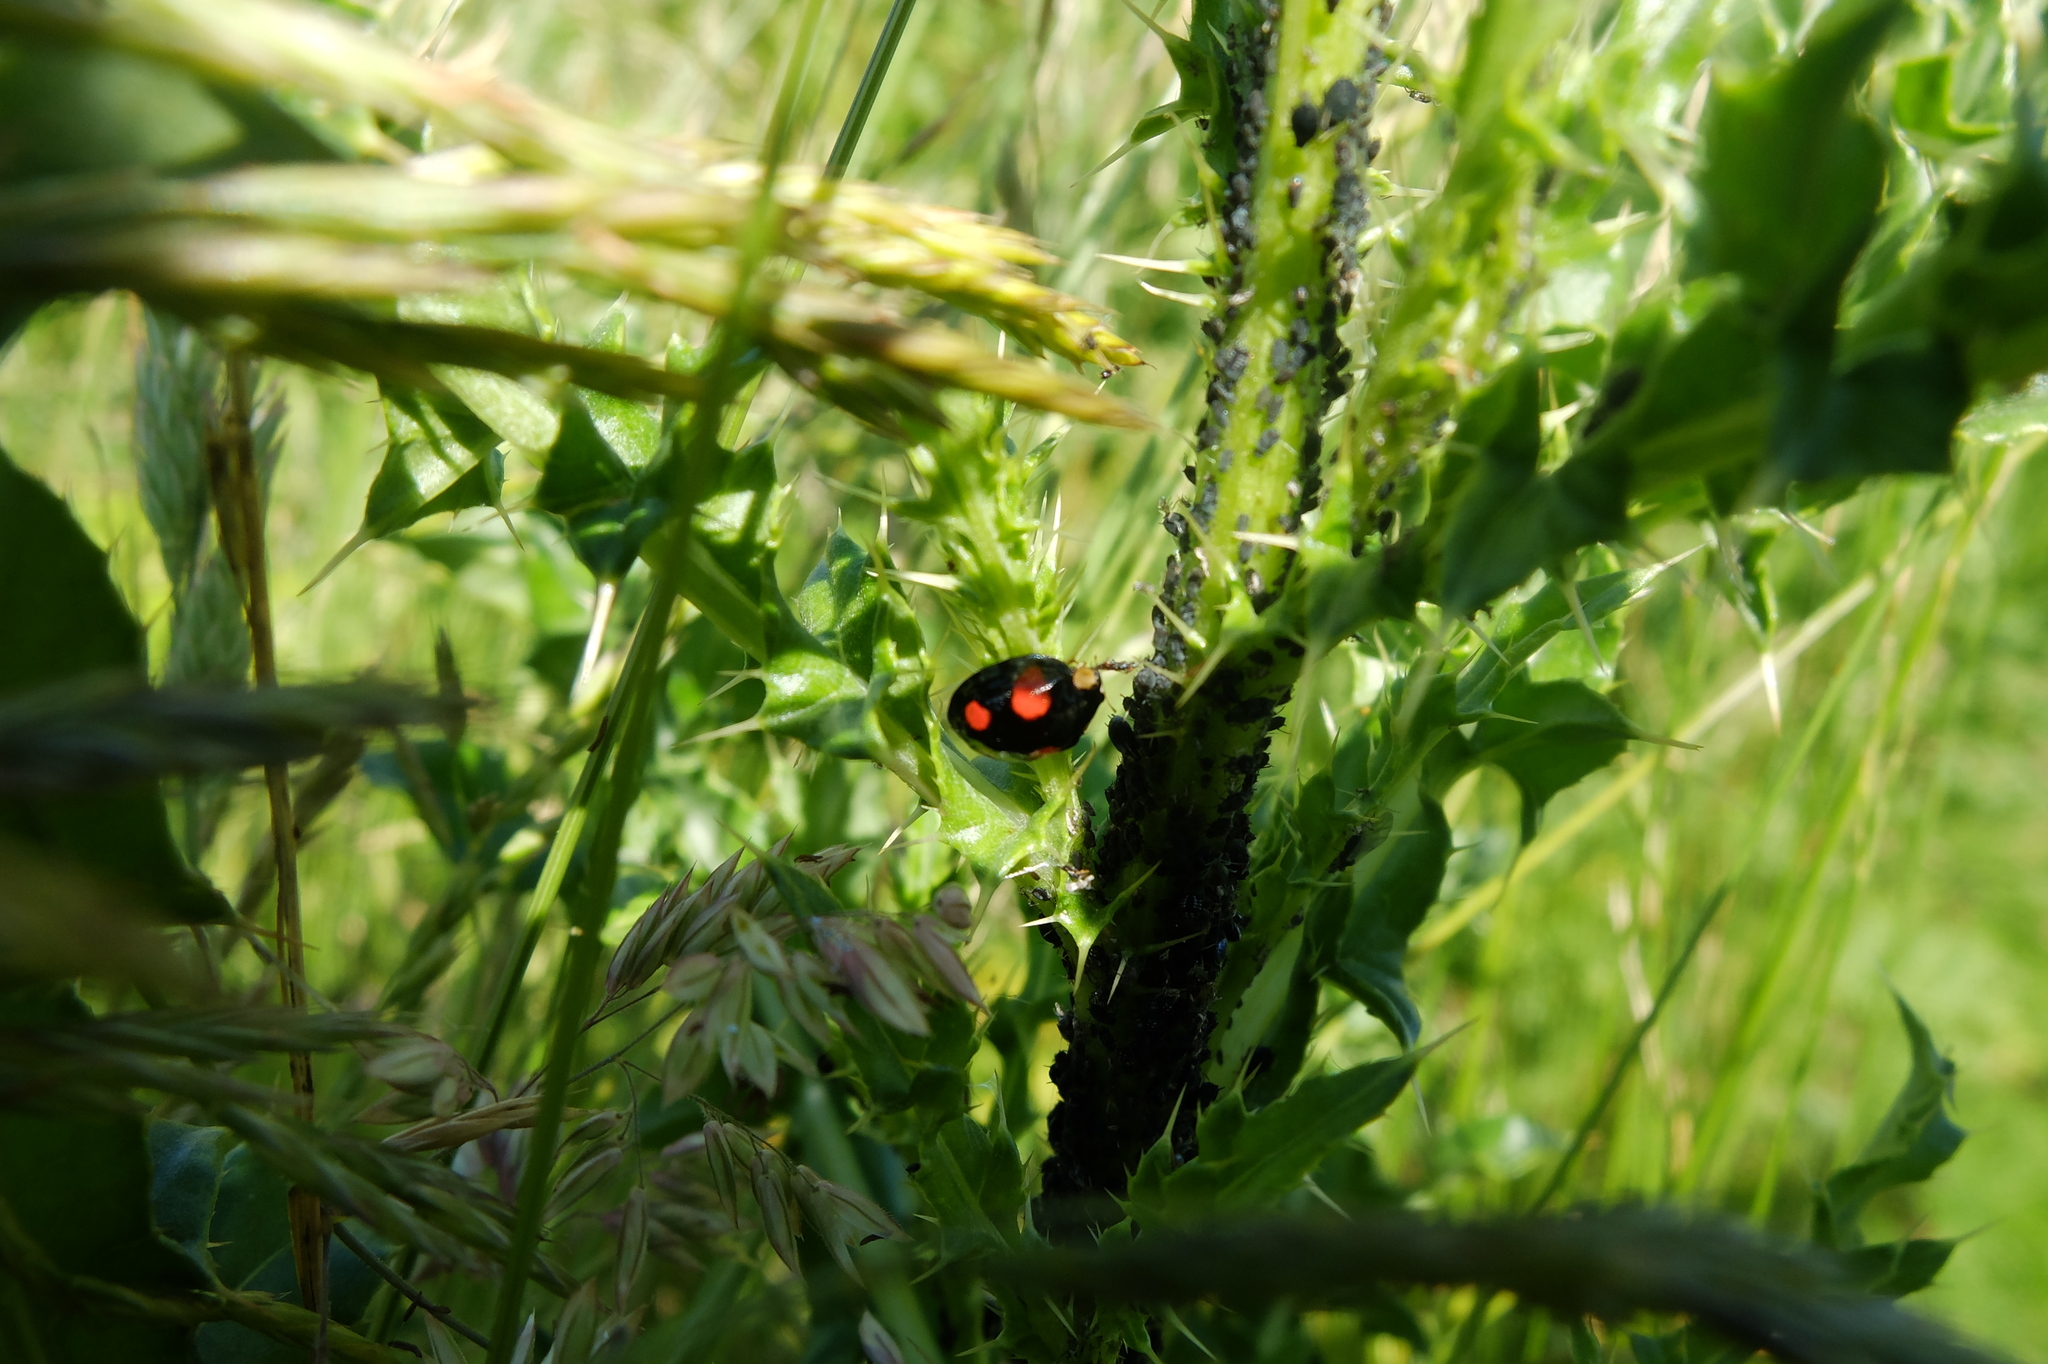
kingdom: Animalia
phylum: Arthropoda
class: Insecta
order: Coleoptera
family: Coccinellidae
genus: Harmonia
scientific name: Harmonia axyridis
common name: Harlequin ladybird
